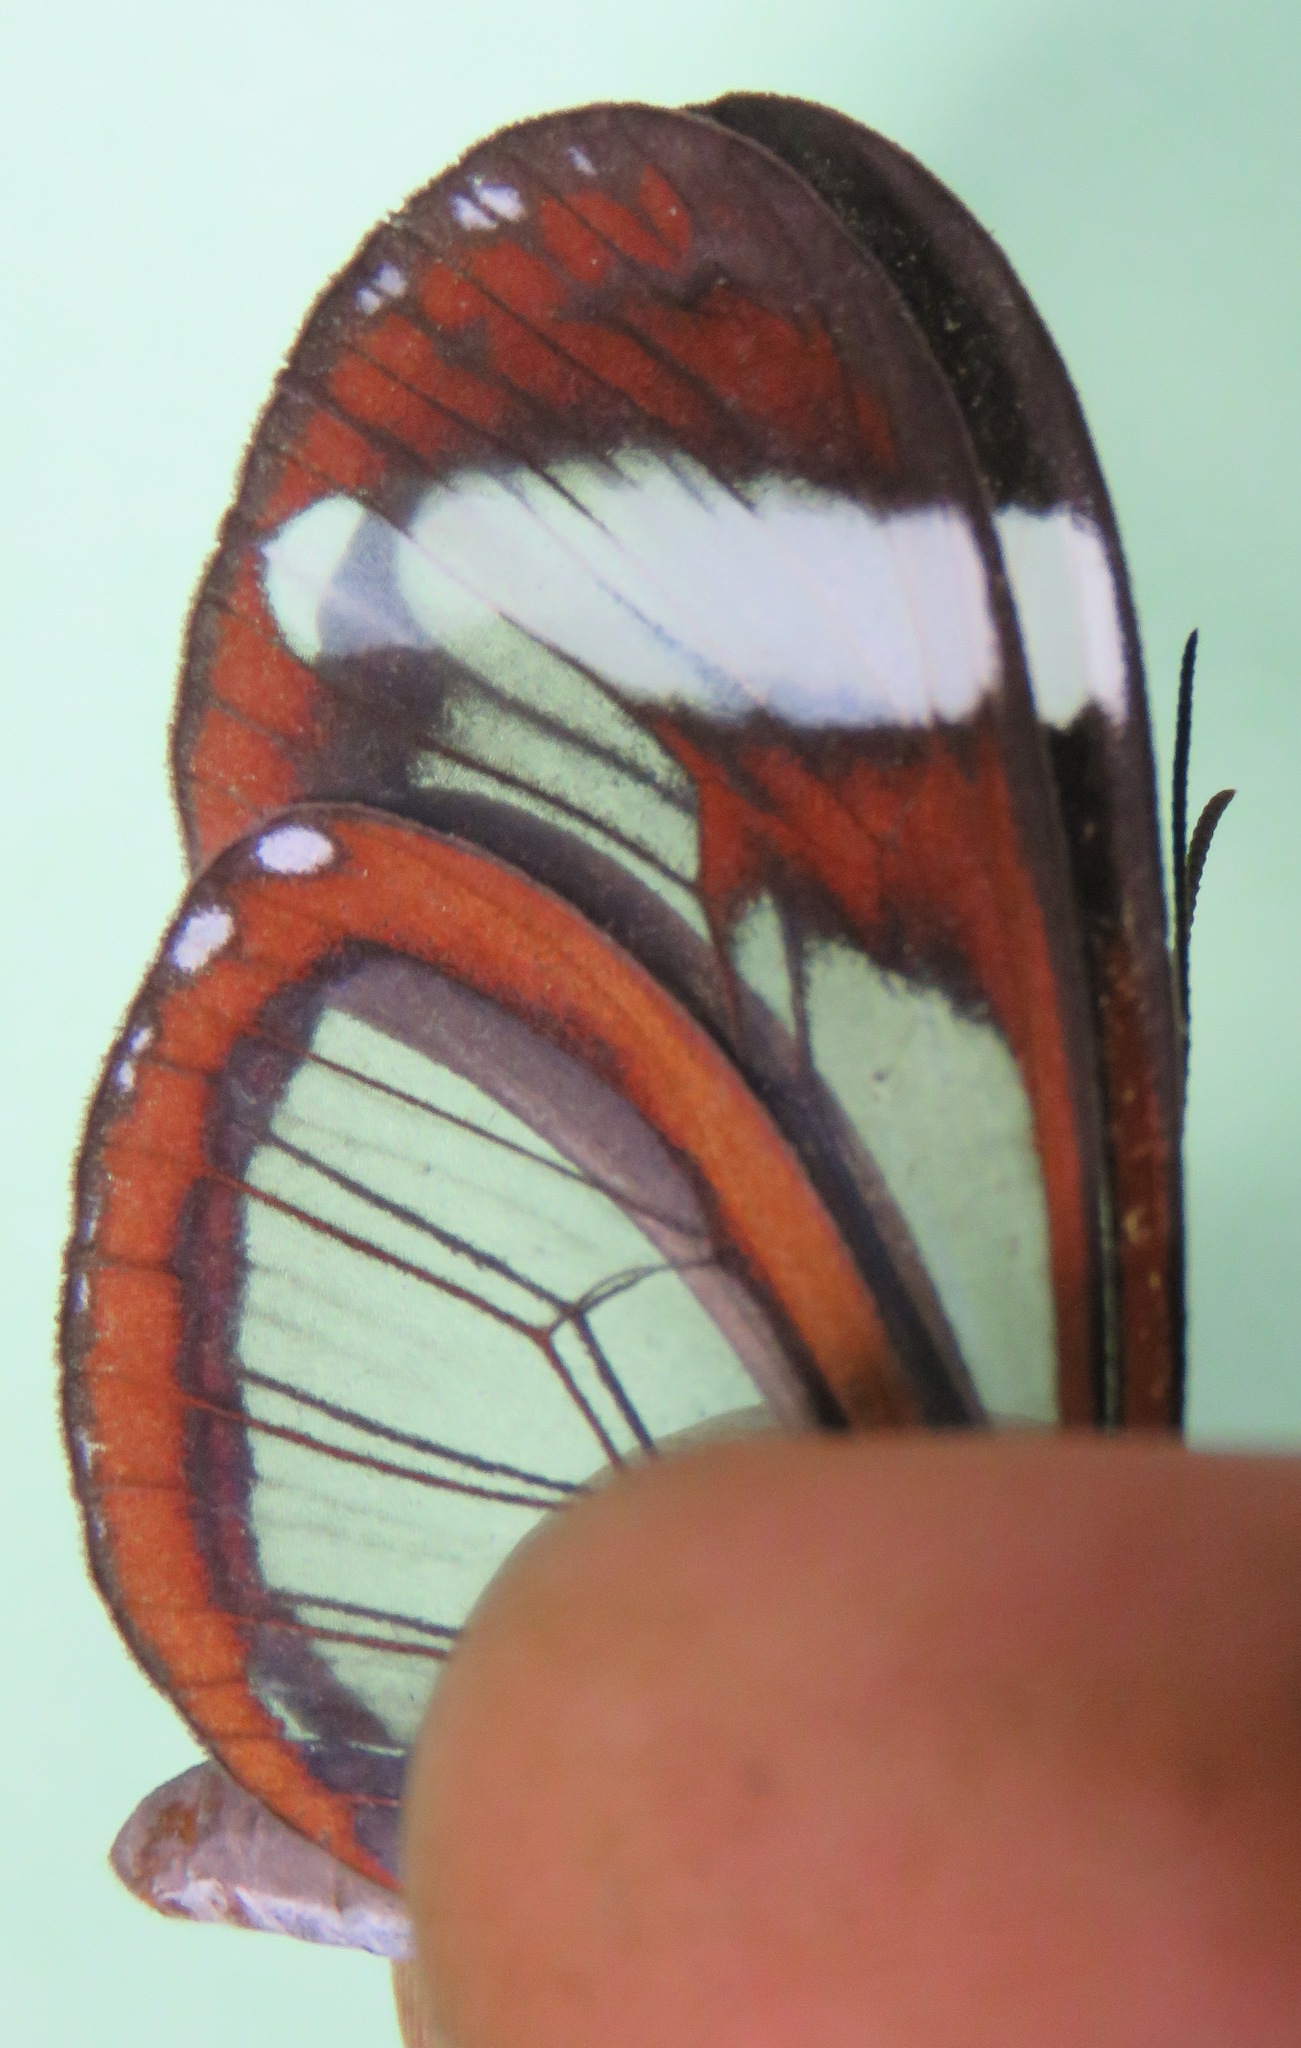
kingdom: Animalia
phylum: Arthropoda
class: Insecta
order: Lepidoptera
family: Nymphalidae
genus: Oleria
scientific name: Oleria paula
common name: Paula's clearwing
